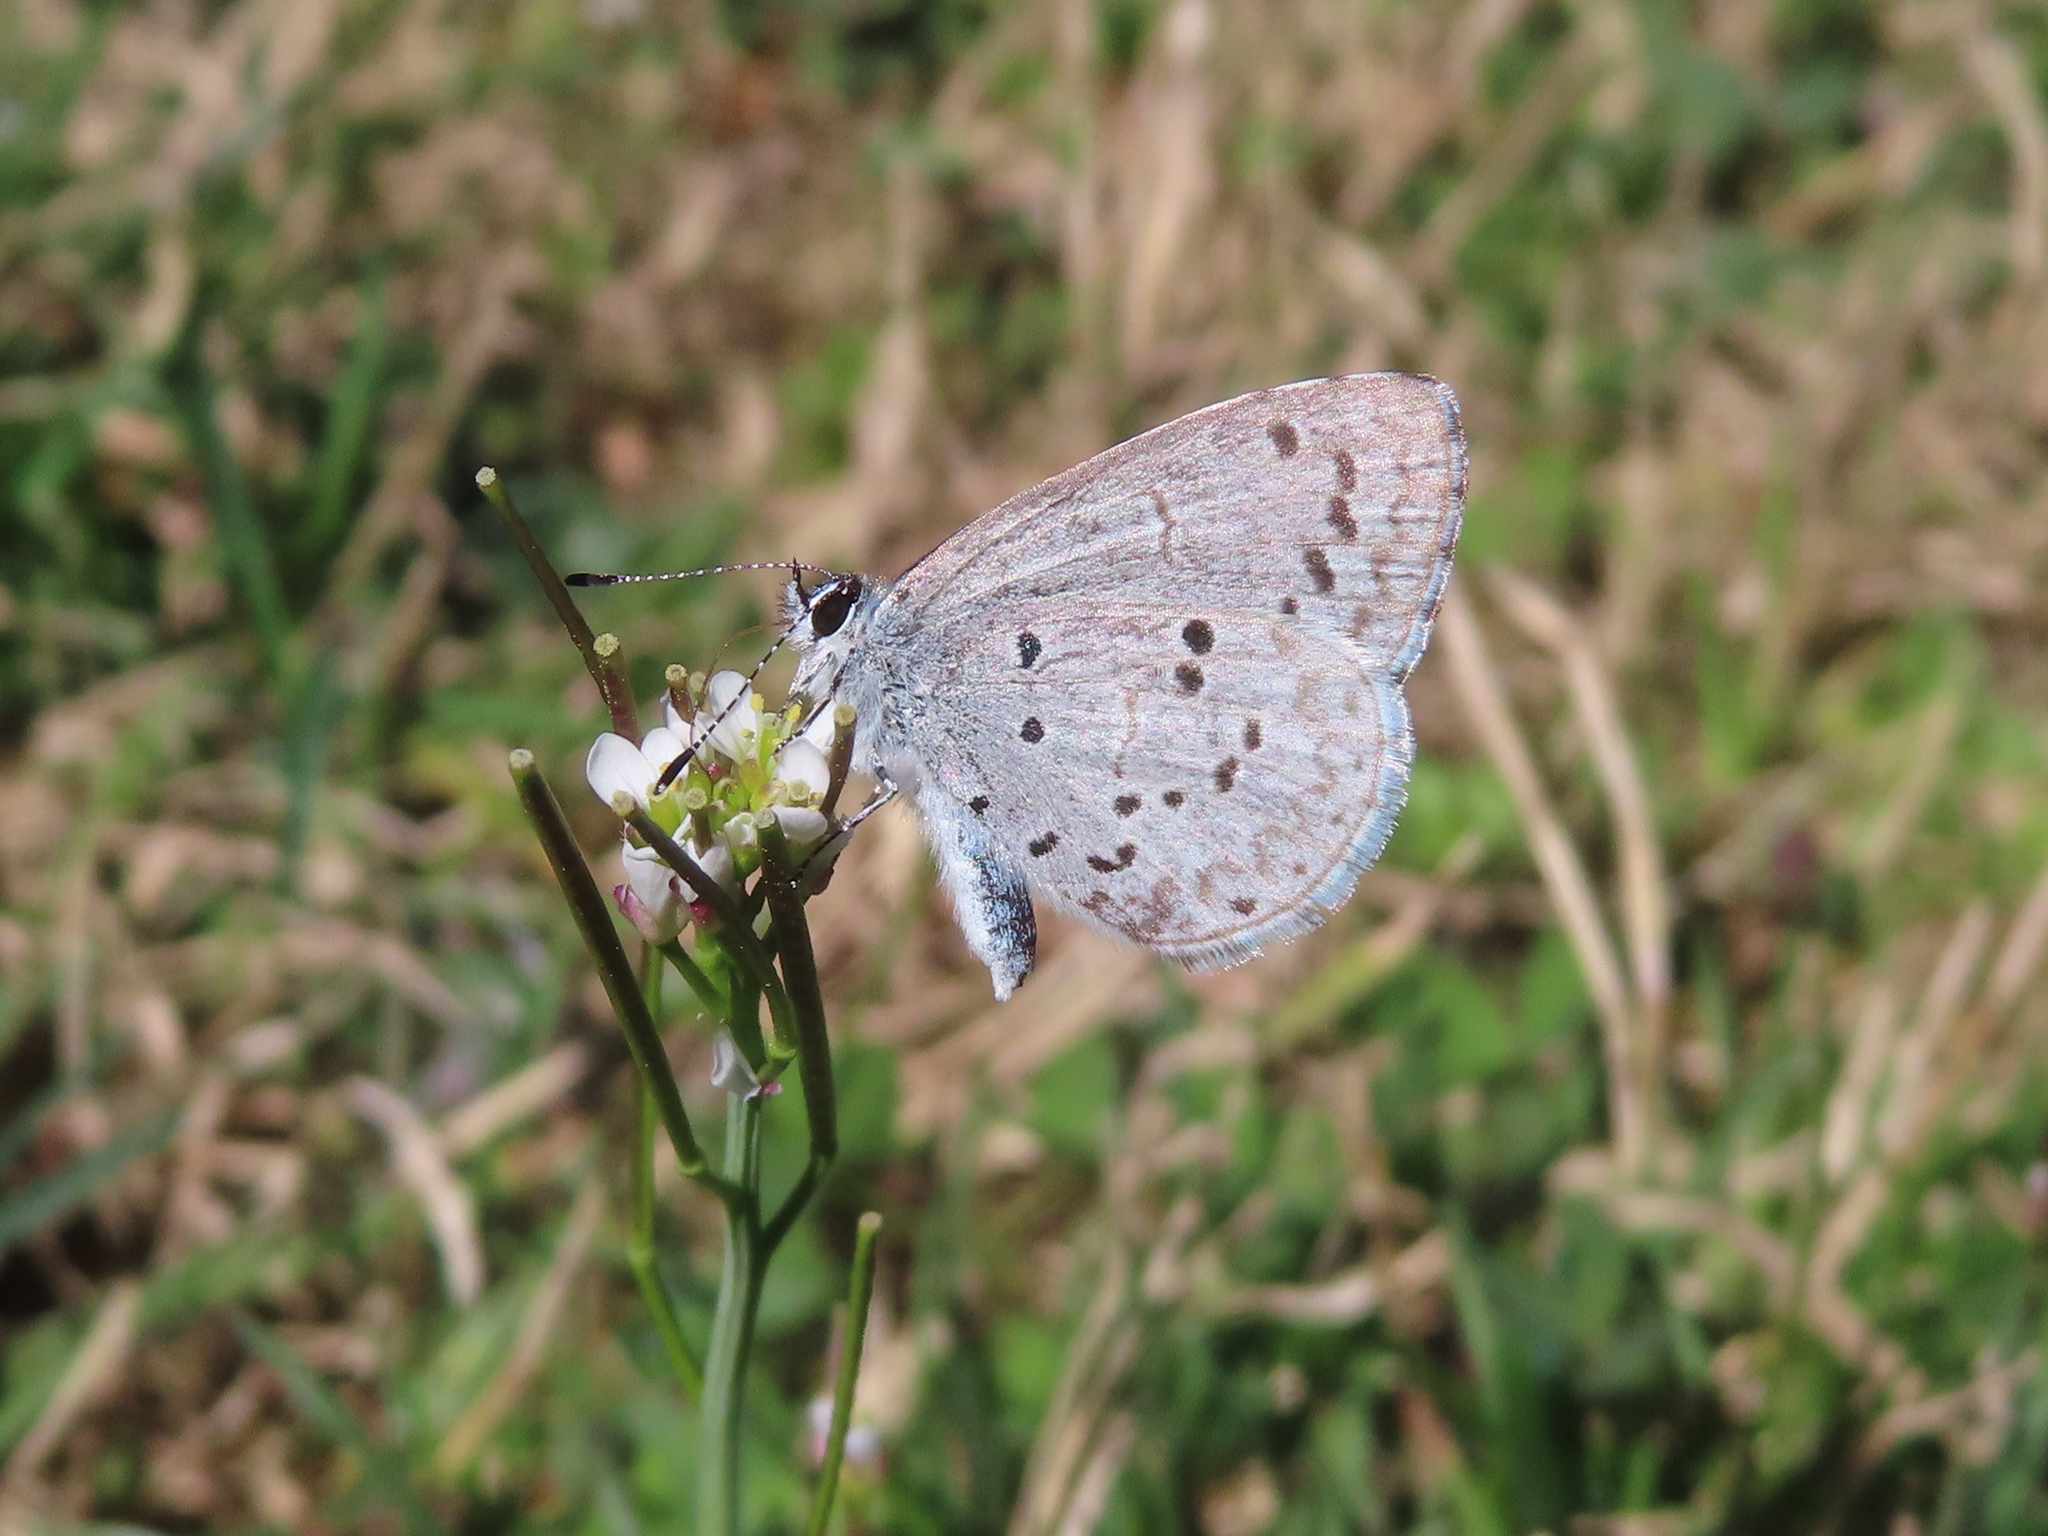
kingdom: Plantae
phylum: Tracheophyta
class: Magnoliopsida
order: Brassicales
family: Brassicaceae
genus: Cardamine
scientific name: Cardamine hirsuta
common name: Hairy bittercress
